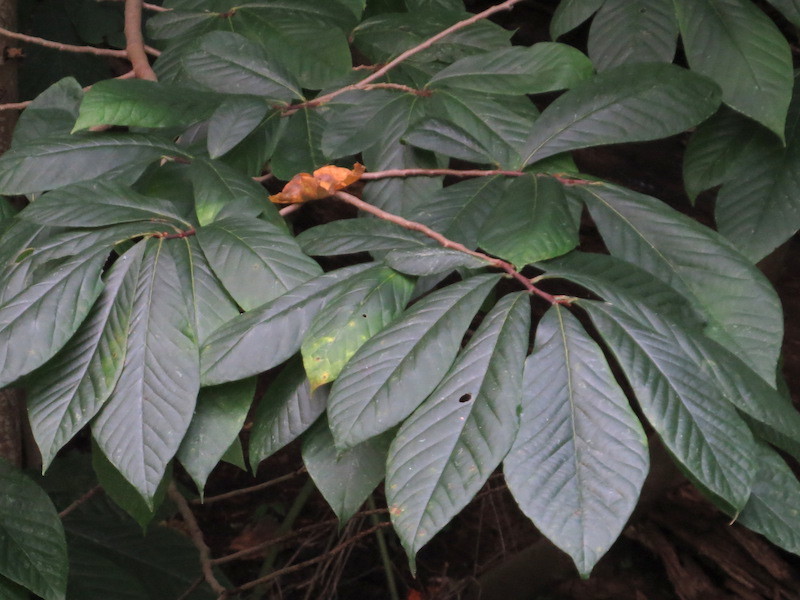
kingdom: Plantae
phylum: Tracheophyta
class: Magnoliopsida
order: Magnoliales
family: Annonaceae
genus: Asimina
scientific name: Asimina triloba
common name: Dog-banana
